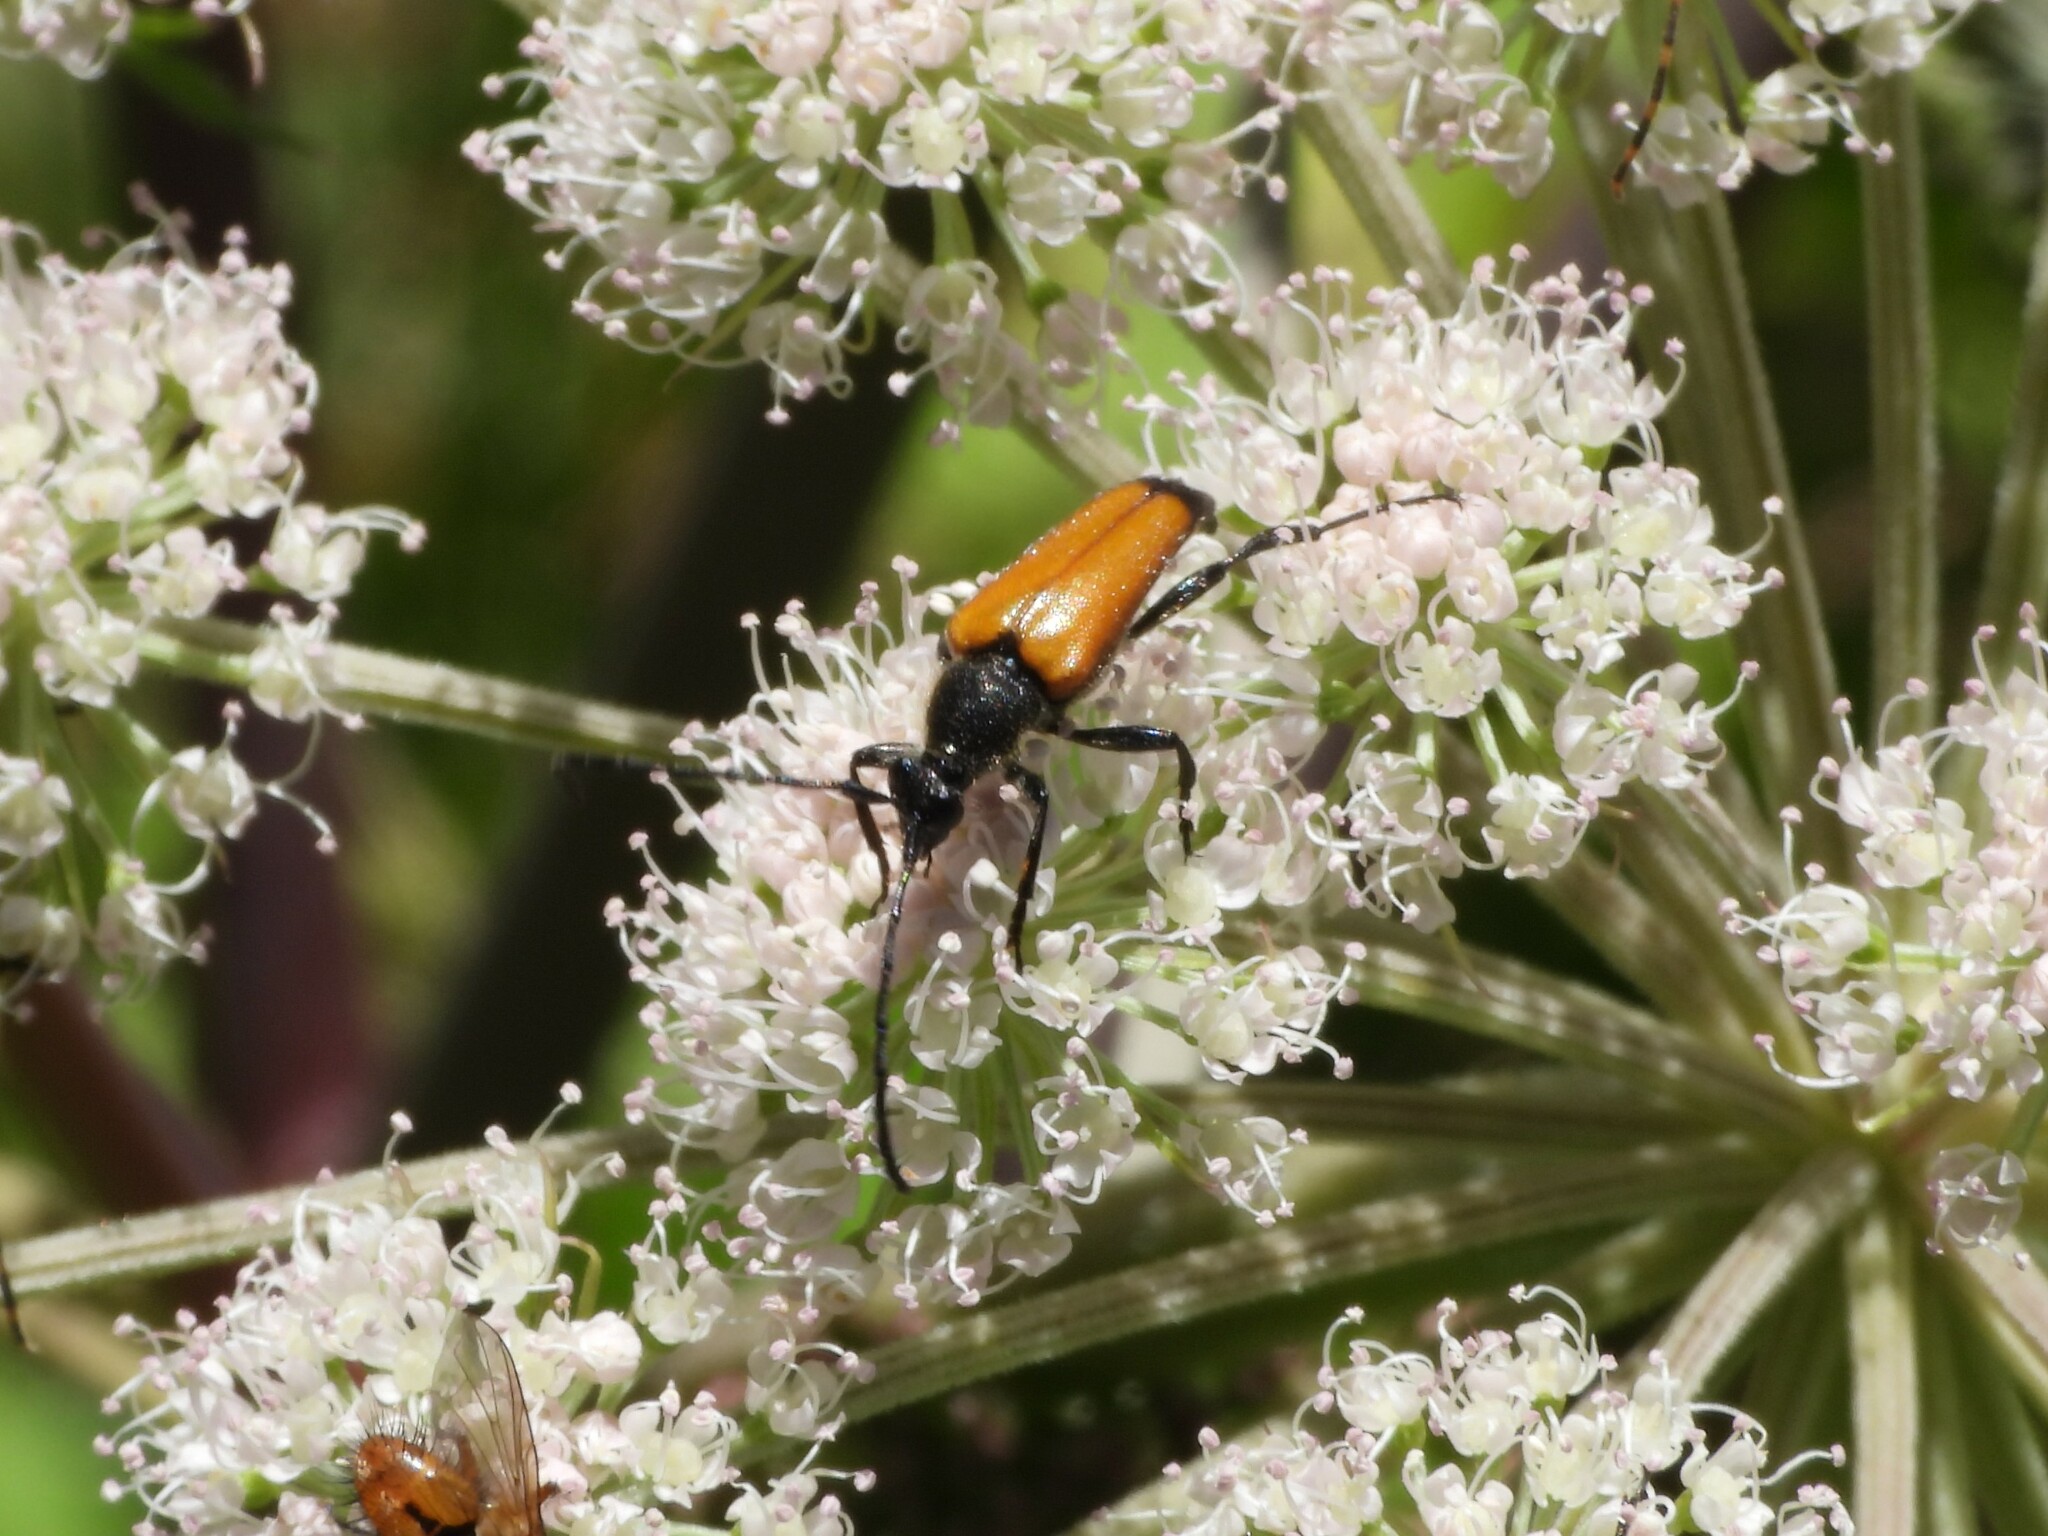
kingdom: Animalia
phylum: Arthropoda
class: Insecta
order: Coleoptera
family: Cerambycidae
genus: Paracorymbia
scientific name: Paracorymbia fulva
